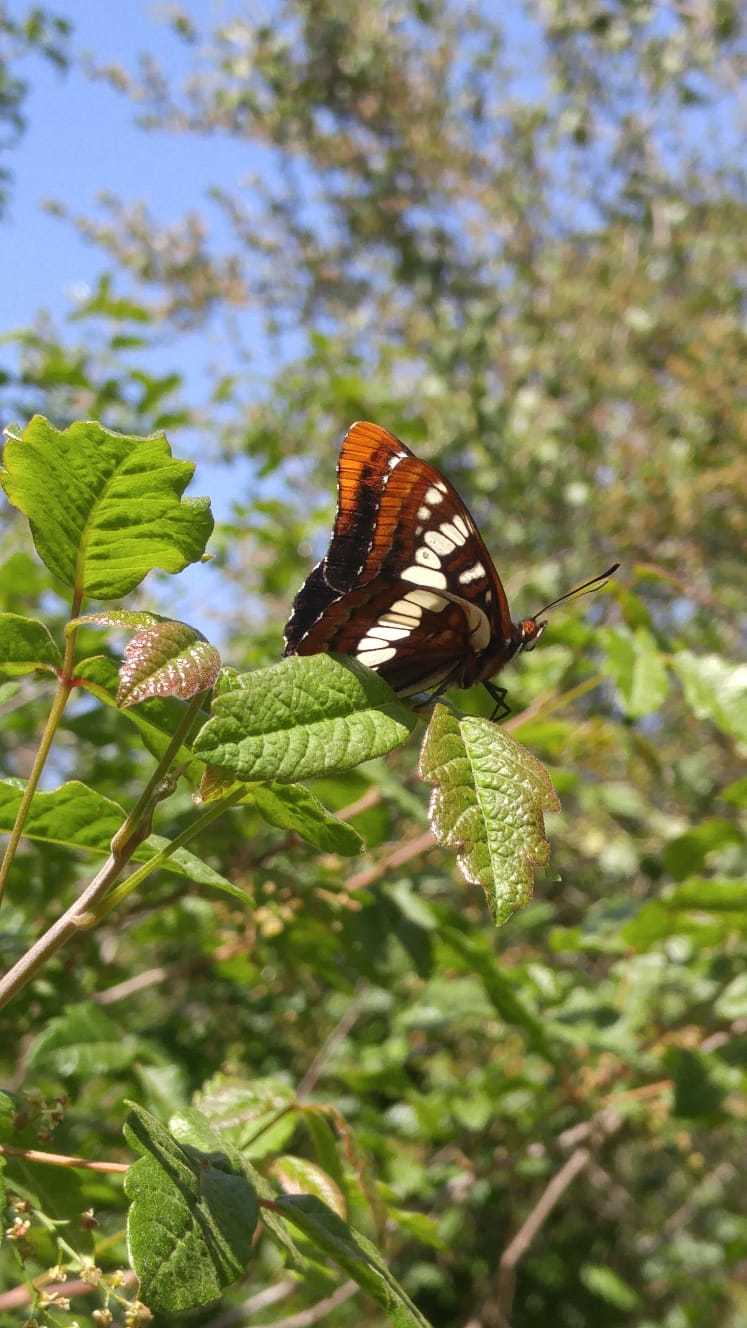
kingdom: Animalia
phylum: Arthropoda
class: Insecta
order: Lepidoptera
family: Nymphalidae
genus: Limenitis
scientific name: Limenitis lorquini
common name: Lorquin's admiral
